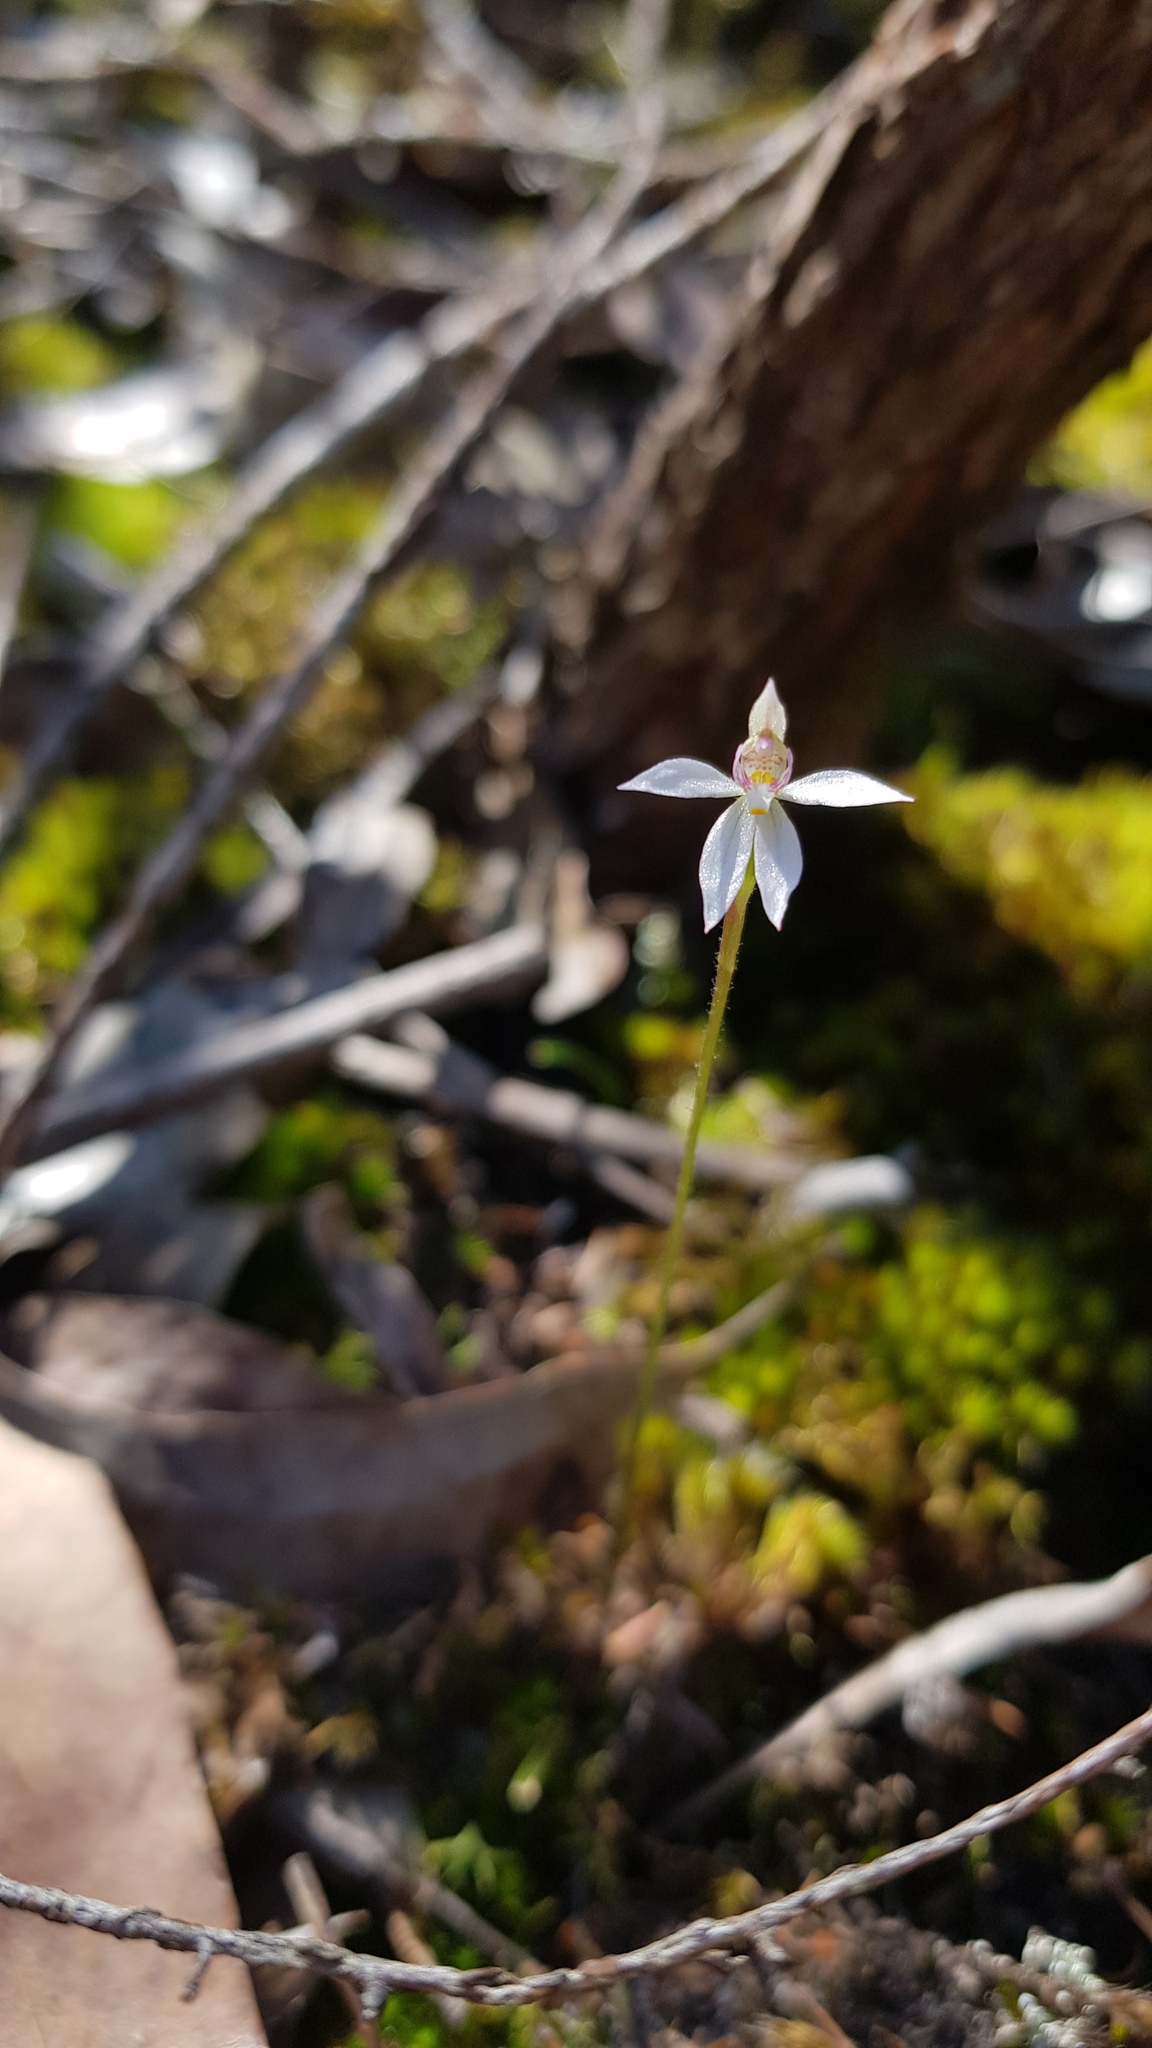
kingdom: Plantae
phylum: Tracheophyta
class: Liliopsida
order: Asparagales
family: Orchidaceae
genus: Caladenia
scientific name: Caladenia alata
